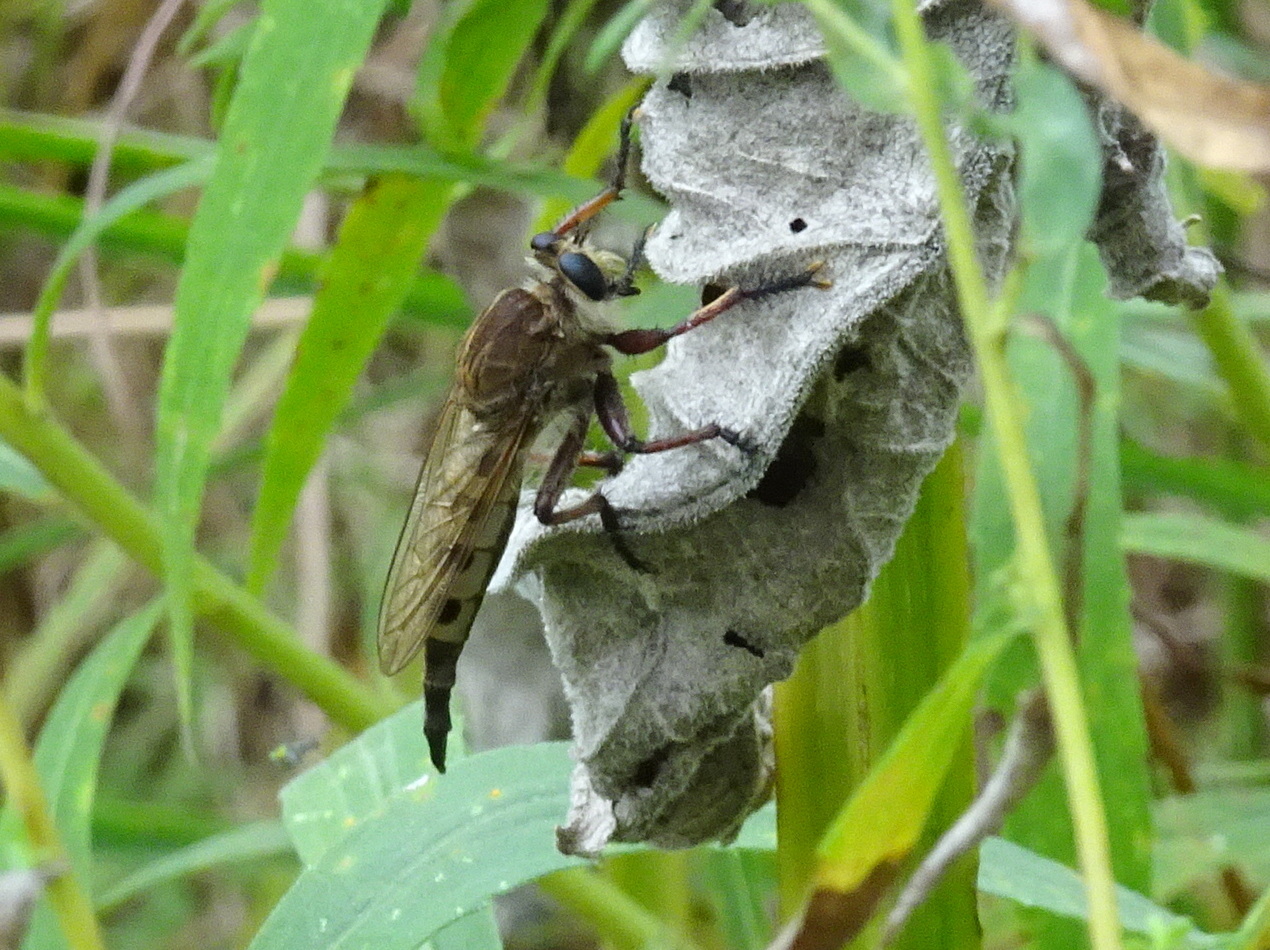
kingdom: Animalia
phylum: Arthropoda
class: Insecta
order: Diptera
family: Asilidae
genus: Promachus
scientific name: Promachus hinei
